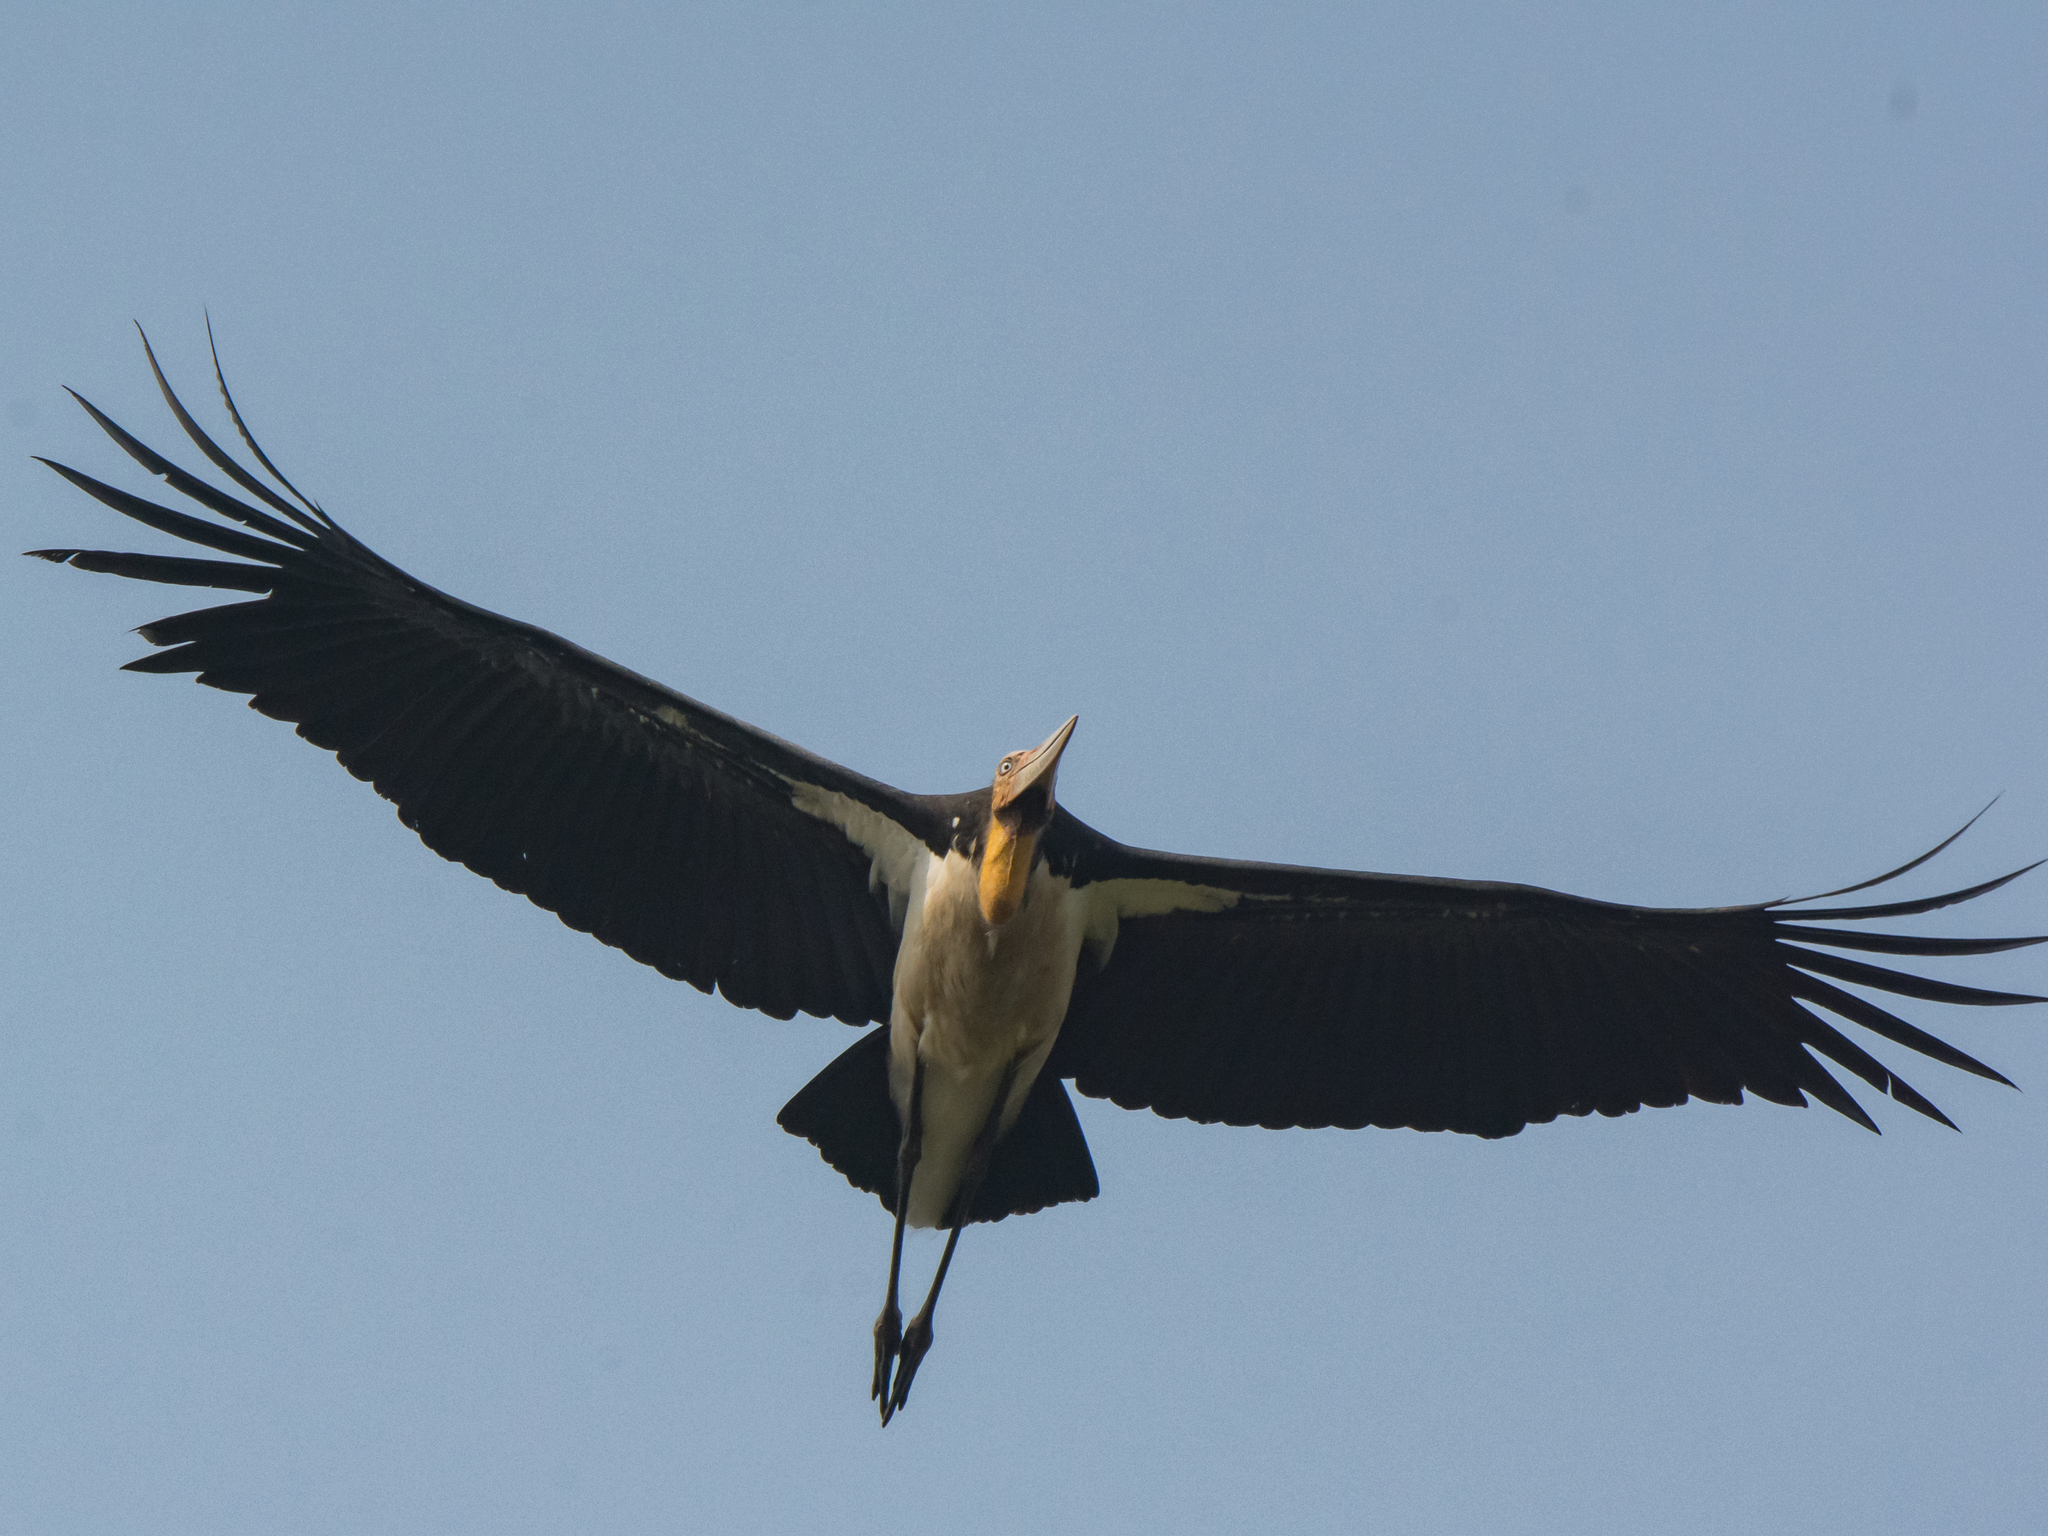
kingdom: Animalia
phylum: Chordata
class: Aves
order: Ciconiiformes
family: Ciconiidae
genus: Leptoptilos
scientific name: Leptoptilos javanicus
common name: Lesser adjutant
